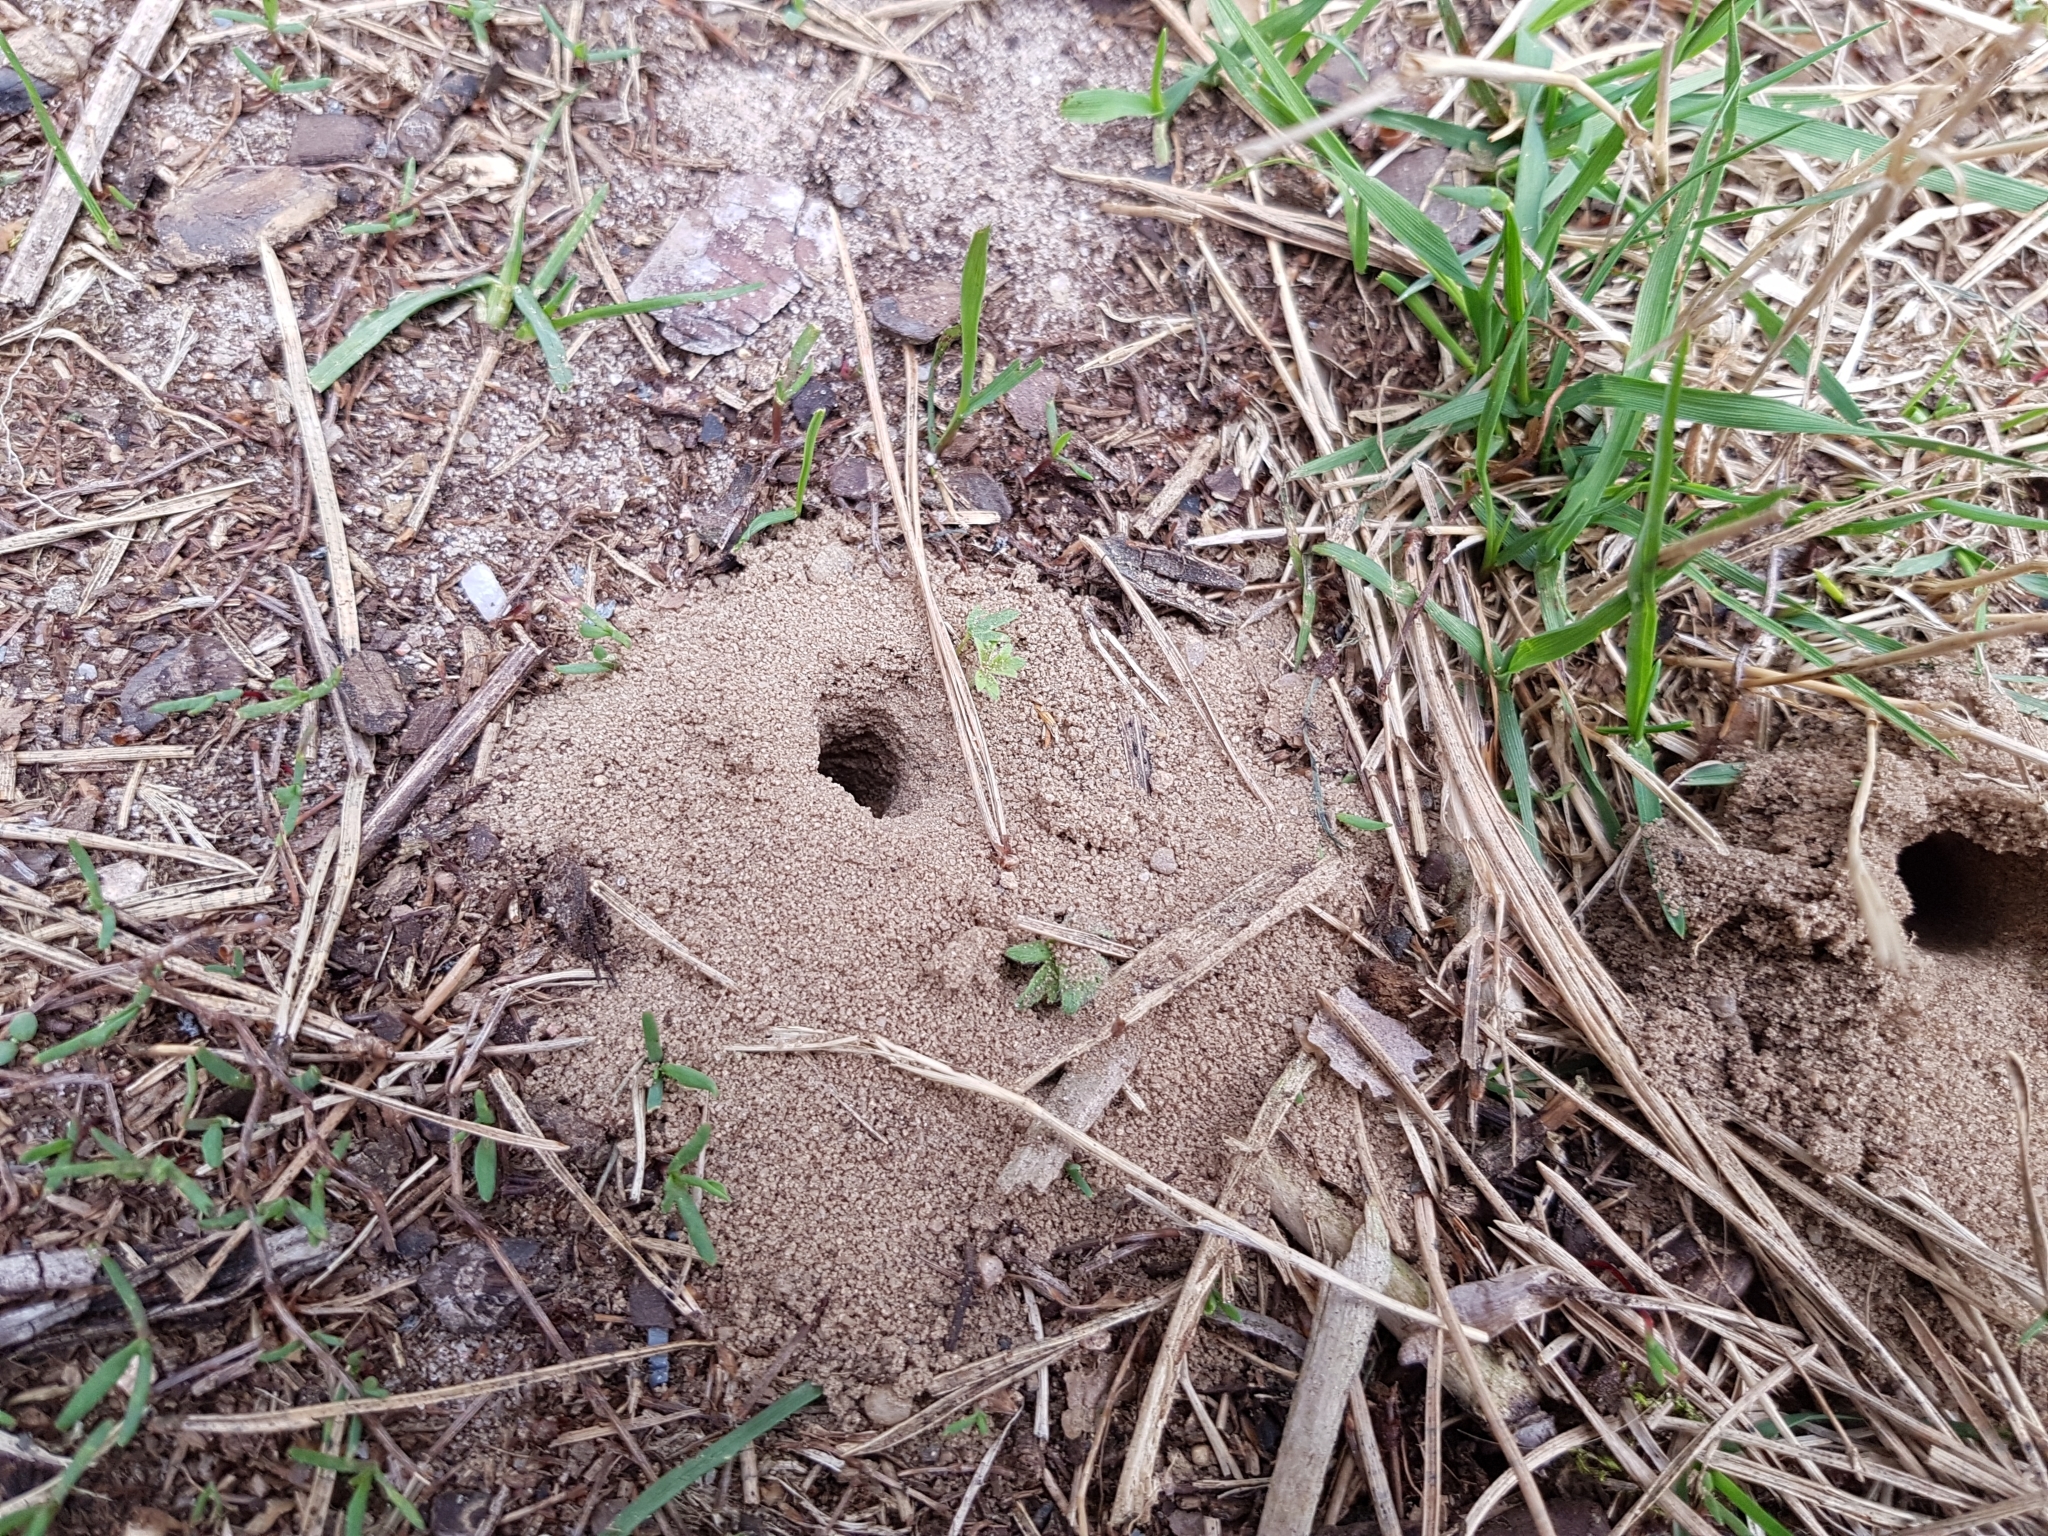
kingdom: Animalia
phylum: Arthropoda
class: Insecta
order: Hymenoptera
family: Colletidae
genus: Colletes
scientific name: Colletes cunicularius
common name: Early colletes
